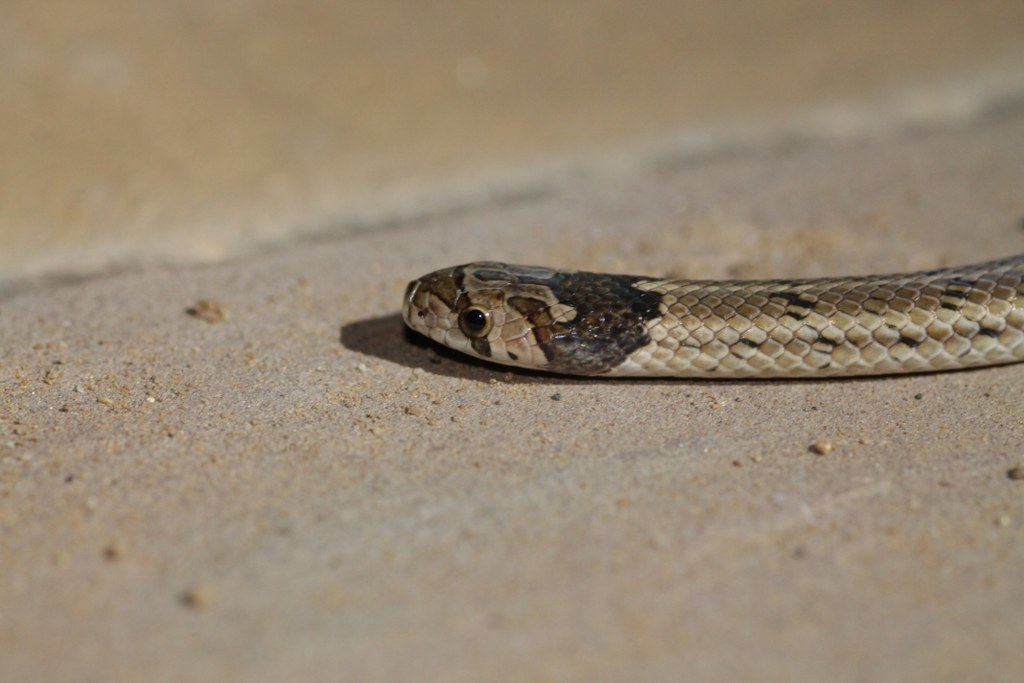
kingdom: Animalia
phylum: Chordata
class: Squamata
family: Colubridae
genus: Oligodon
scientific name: Oligodon taeniolatus
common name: Loos snake
